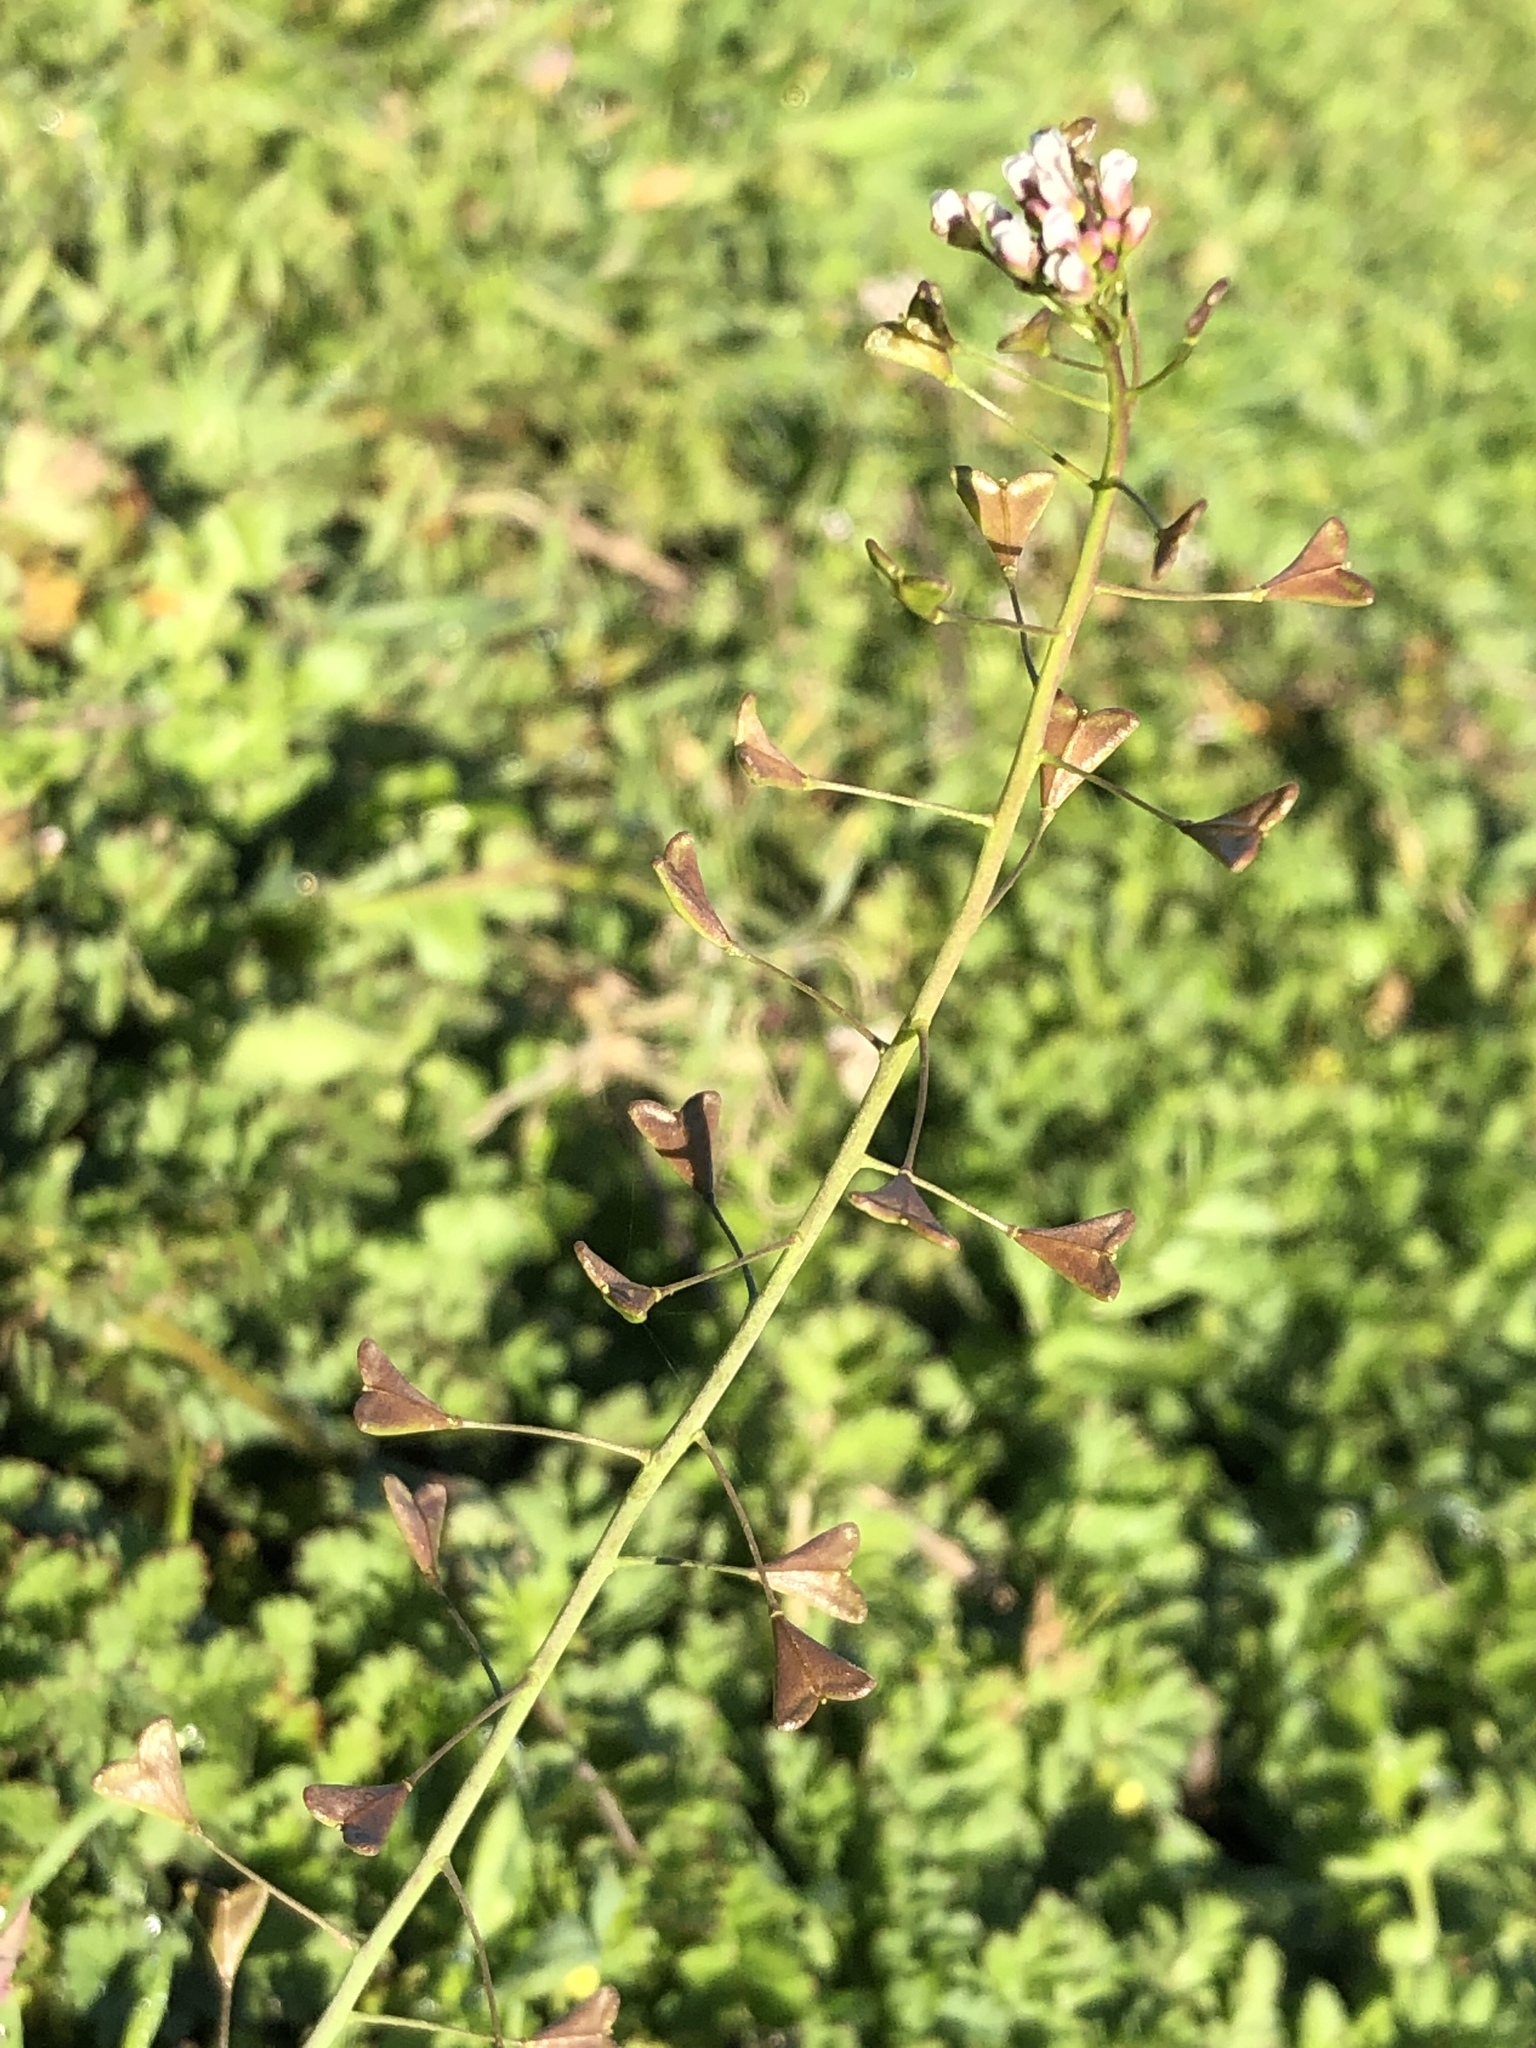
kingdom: Plantae
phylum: Tracheophyta
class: Magnoliopsida
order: Brassicales
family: Brassicaceae
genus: Capsella
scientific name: Capsella bursa-pastoris
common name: Shepherd's purse
